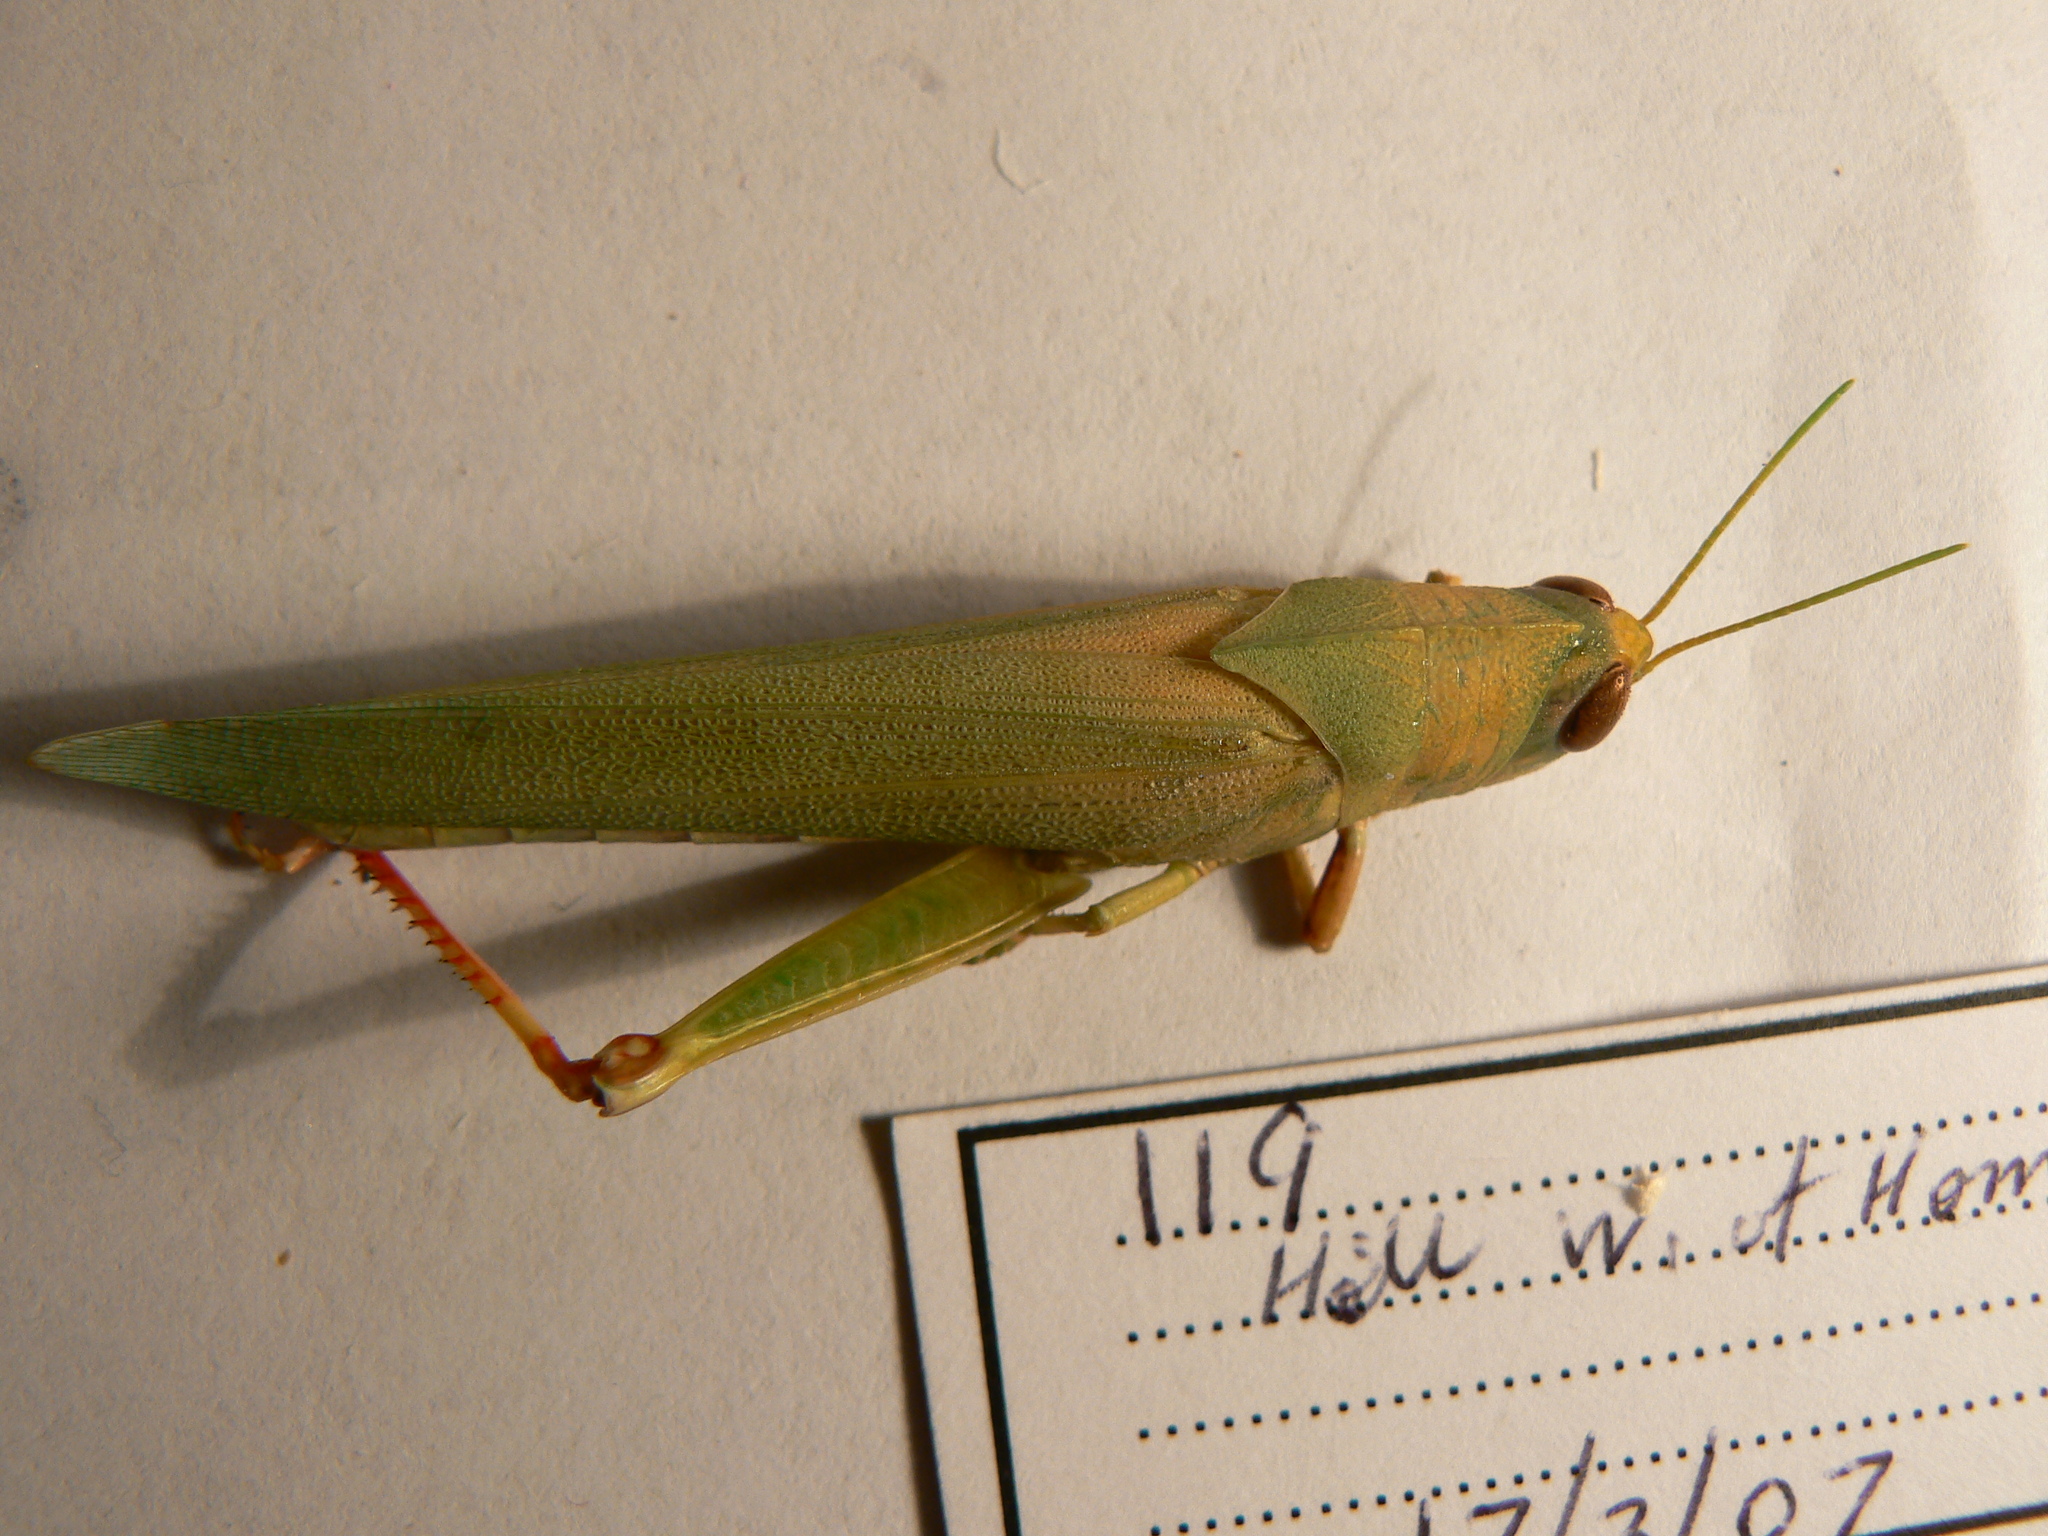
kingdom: Animalia
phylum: Arthropoda
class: Insecta
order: Orthoptera
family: Acrididae
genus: Goniaea
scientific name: Goniaea
